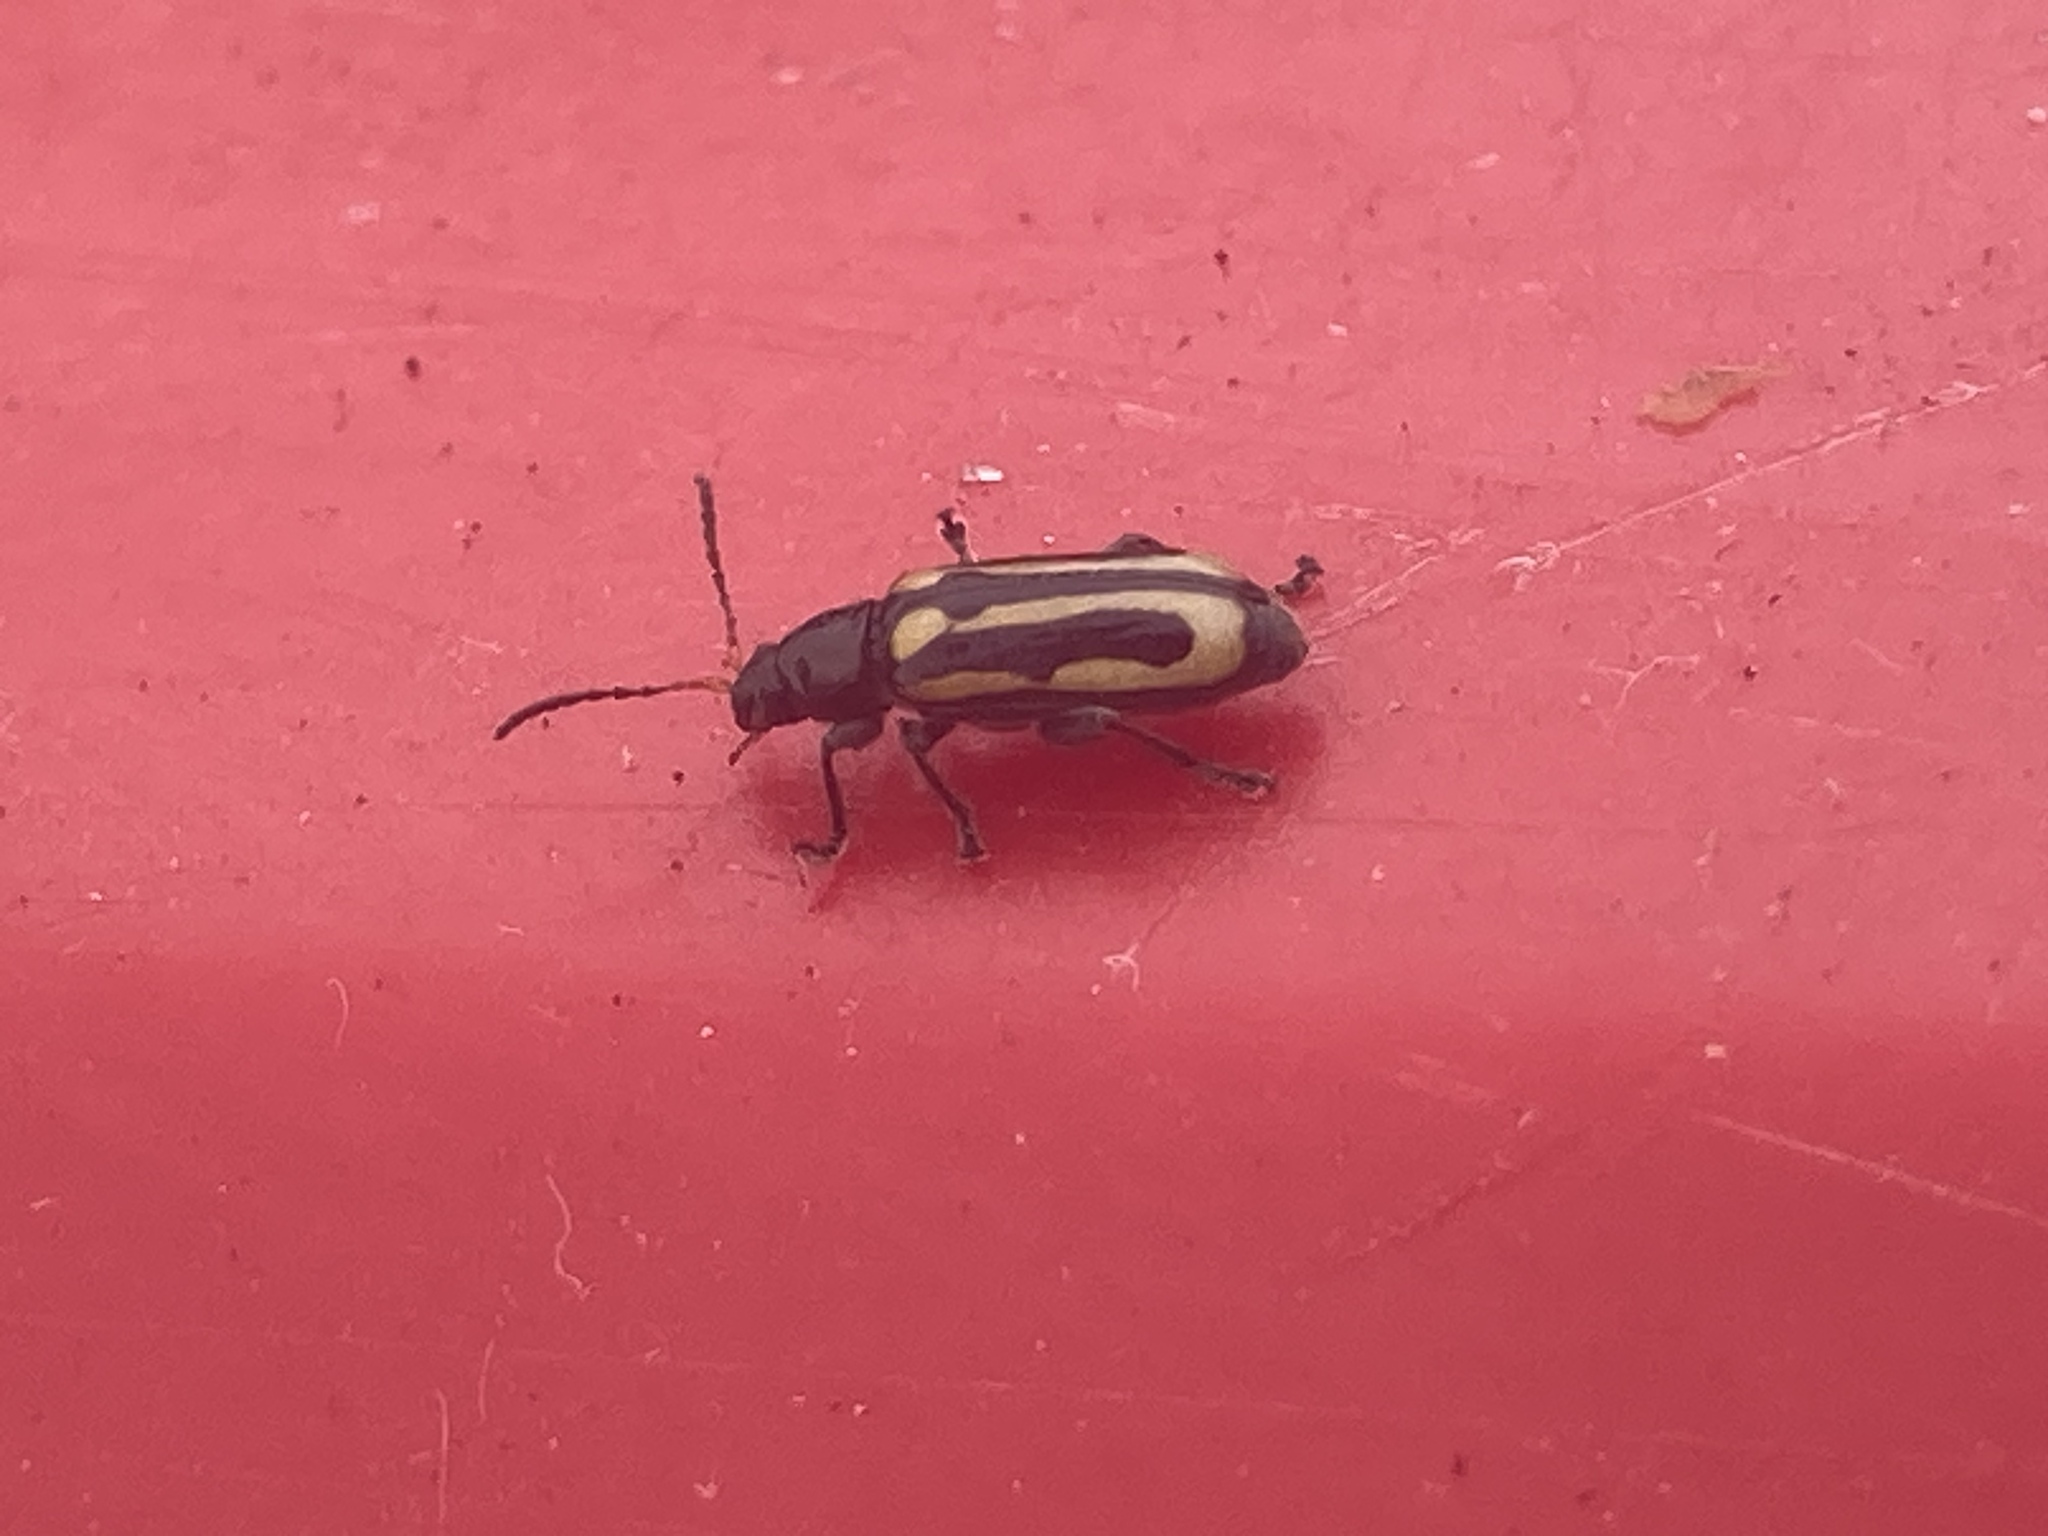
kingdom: Animalia
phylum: Arthropoda
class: Insecta
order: Coleoptera
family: Chrysomelidae
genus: Agasicles
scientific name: Agasicles hygrophila
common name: Alligatorweed flea beetle
